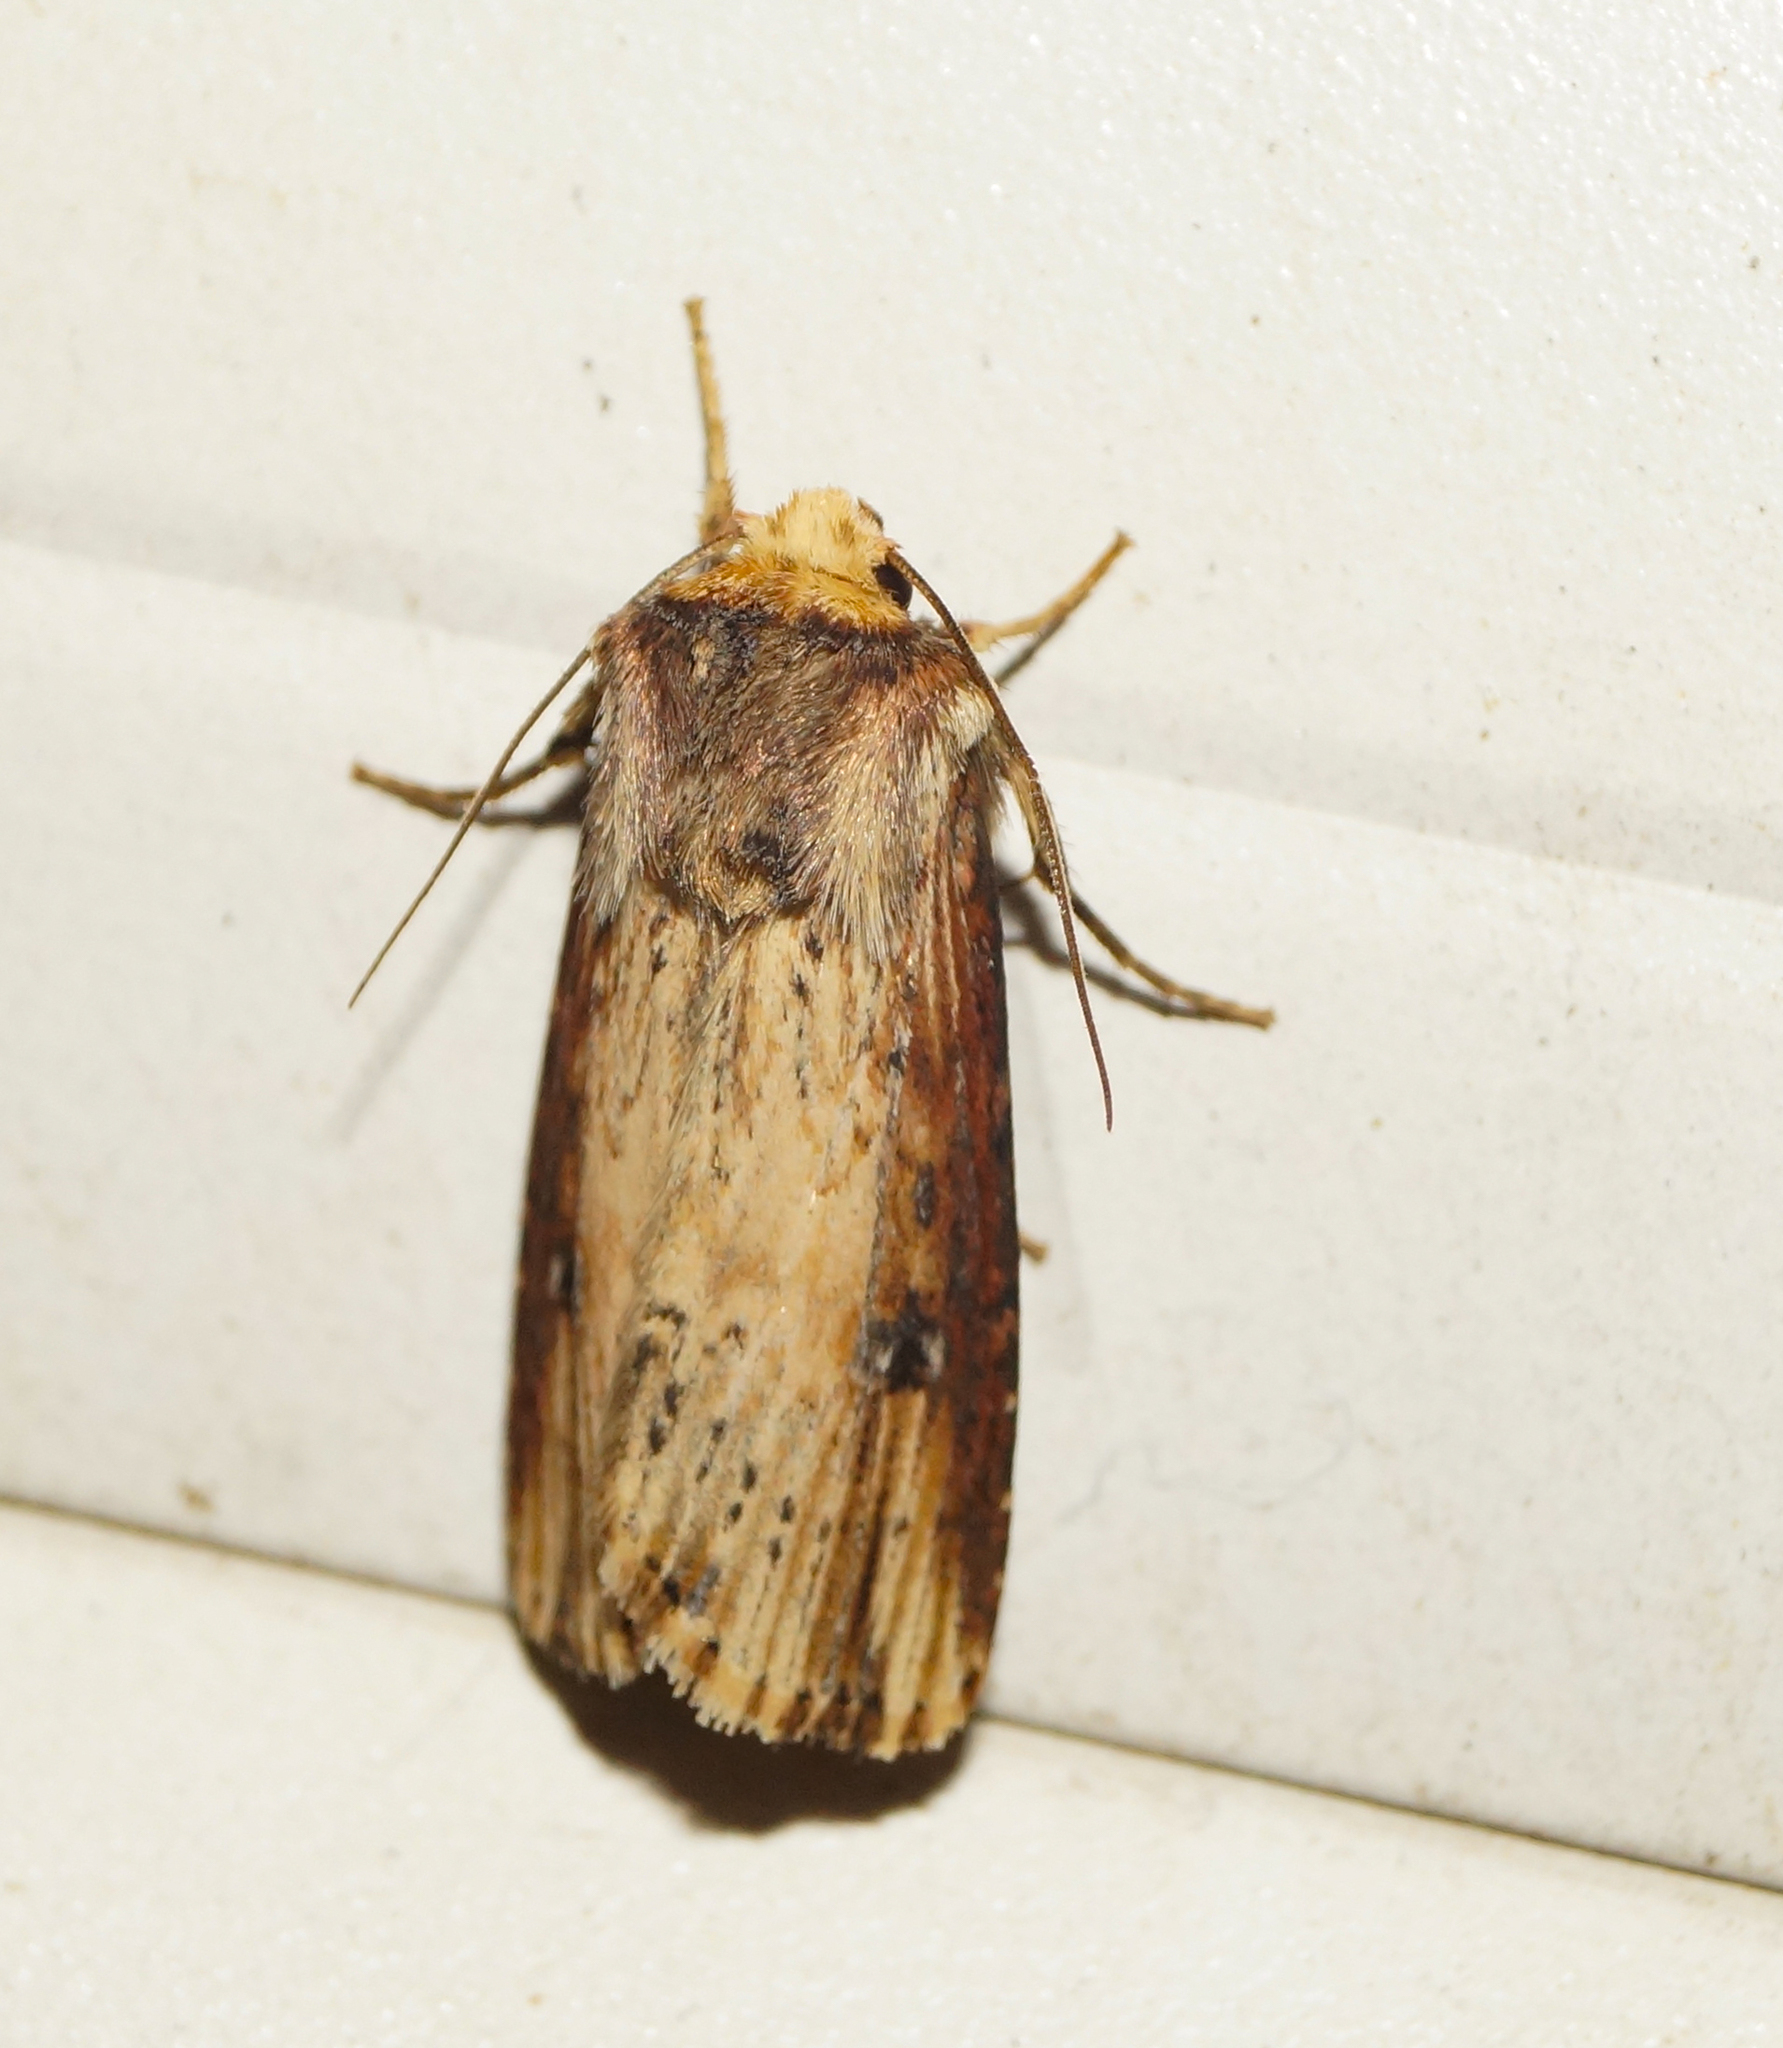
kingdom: Animalia
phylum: Arthropoda
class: Insecta
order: Lepidoptera
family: Noctuidae
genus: Axylia
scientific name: Axylia putris
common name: Flame
